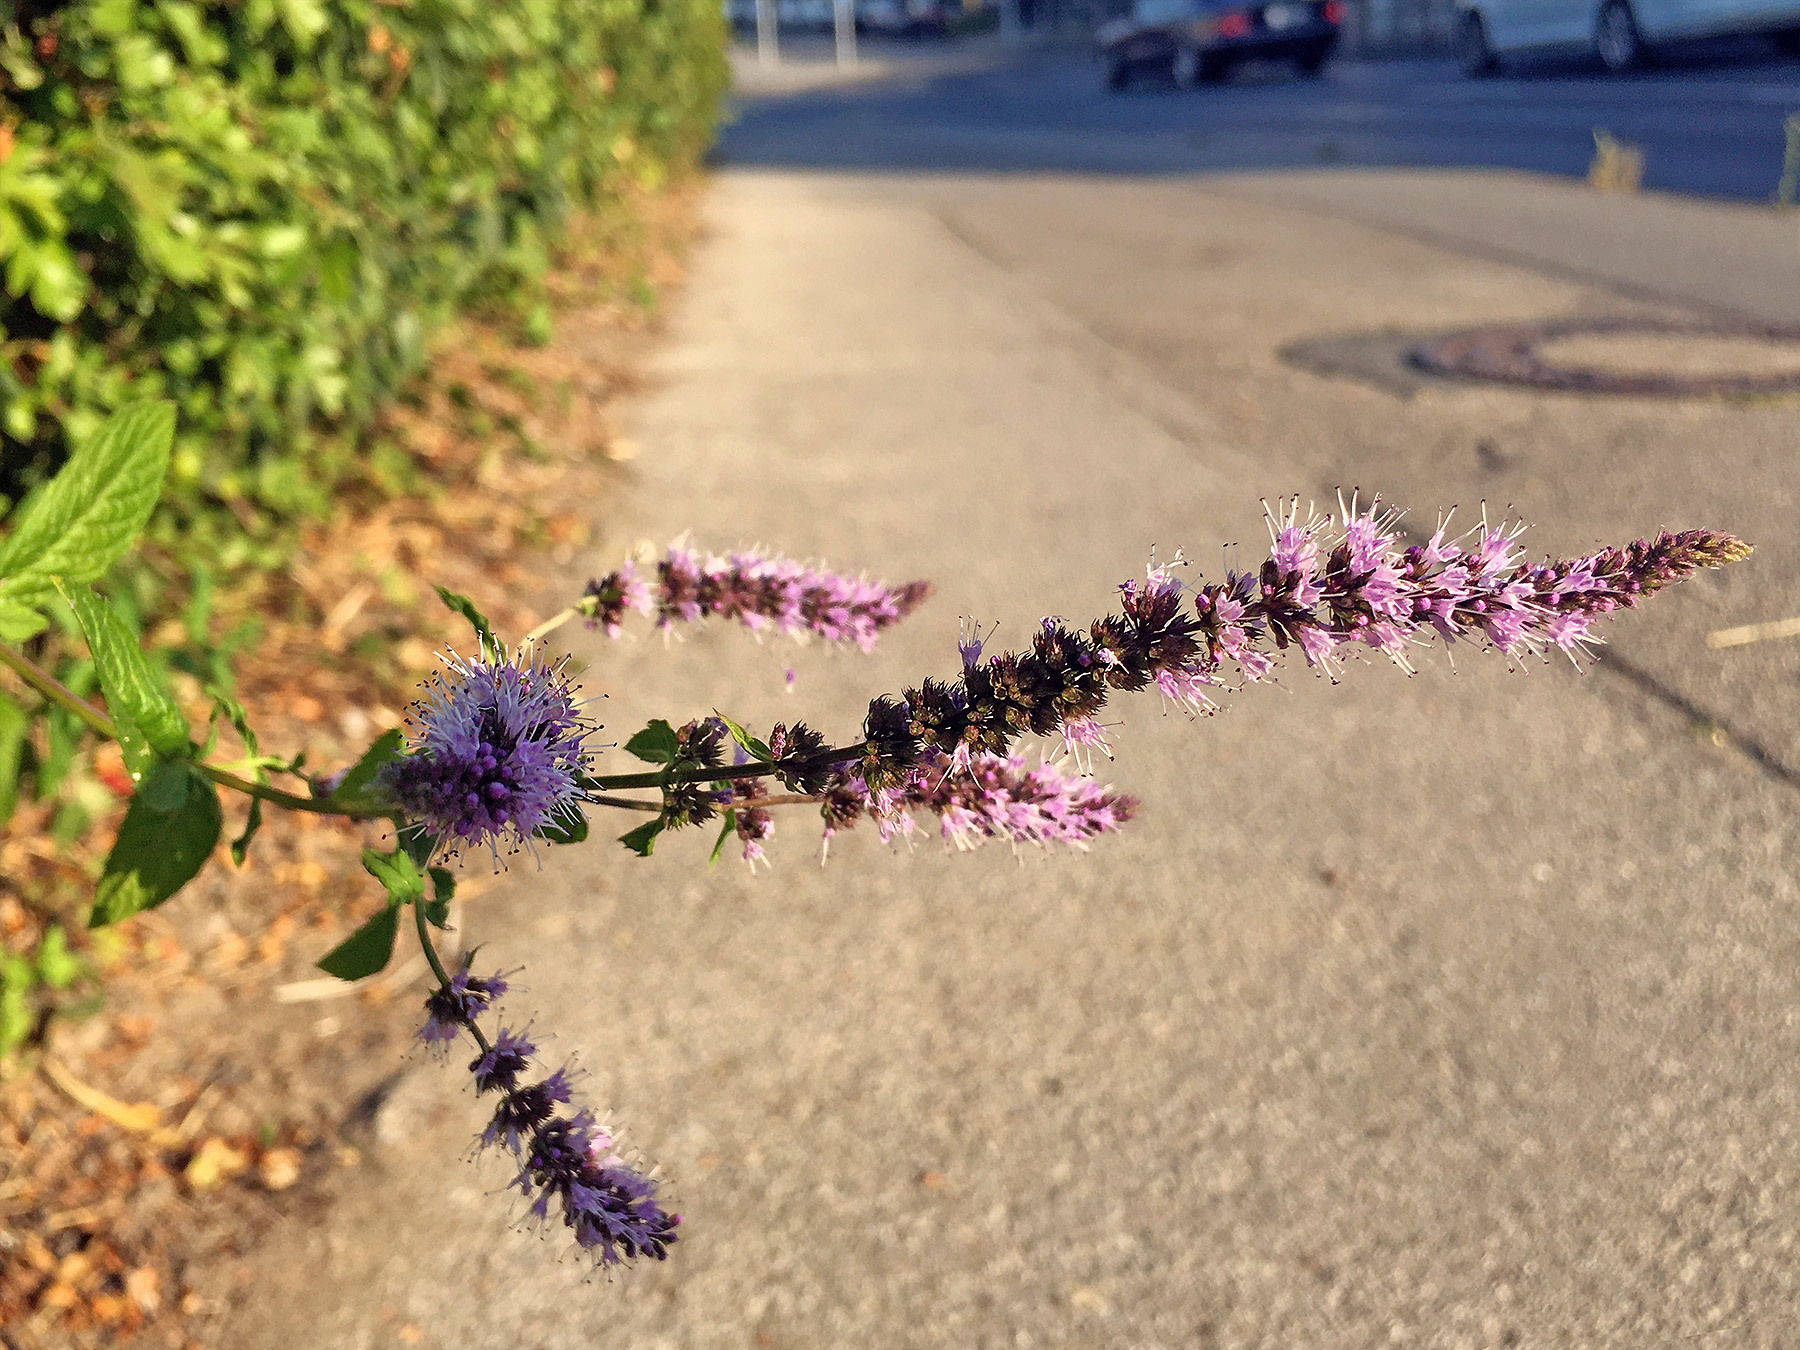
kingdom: Plantae
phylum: Tracheophyta
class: Magnoliopsida
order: Lamiales
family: Lamiaceae
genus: Mentha
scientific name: Mentha piperita
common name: Peppermint
